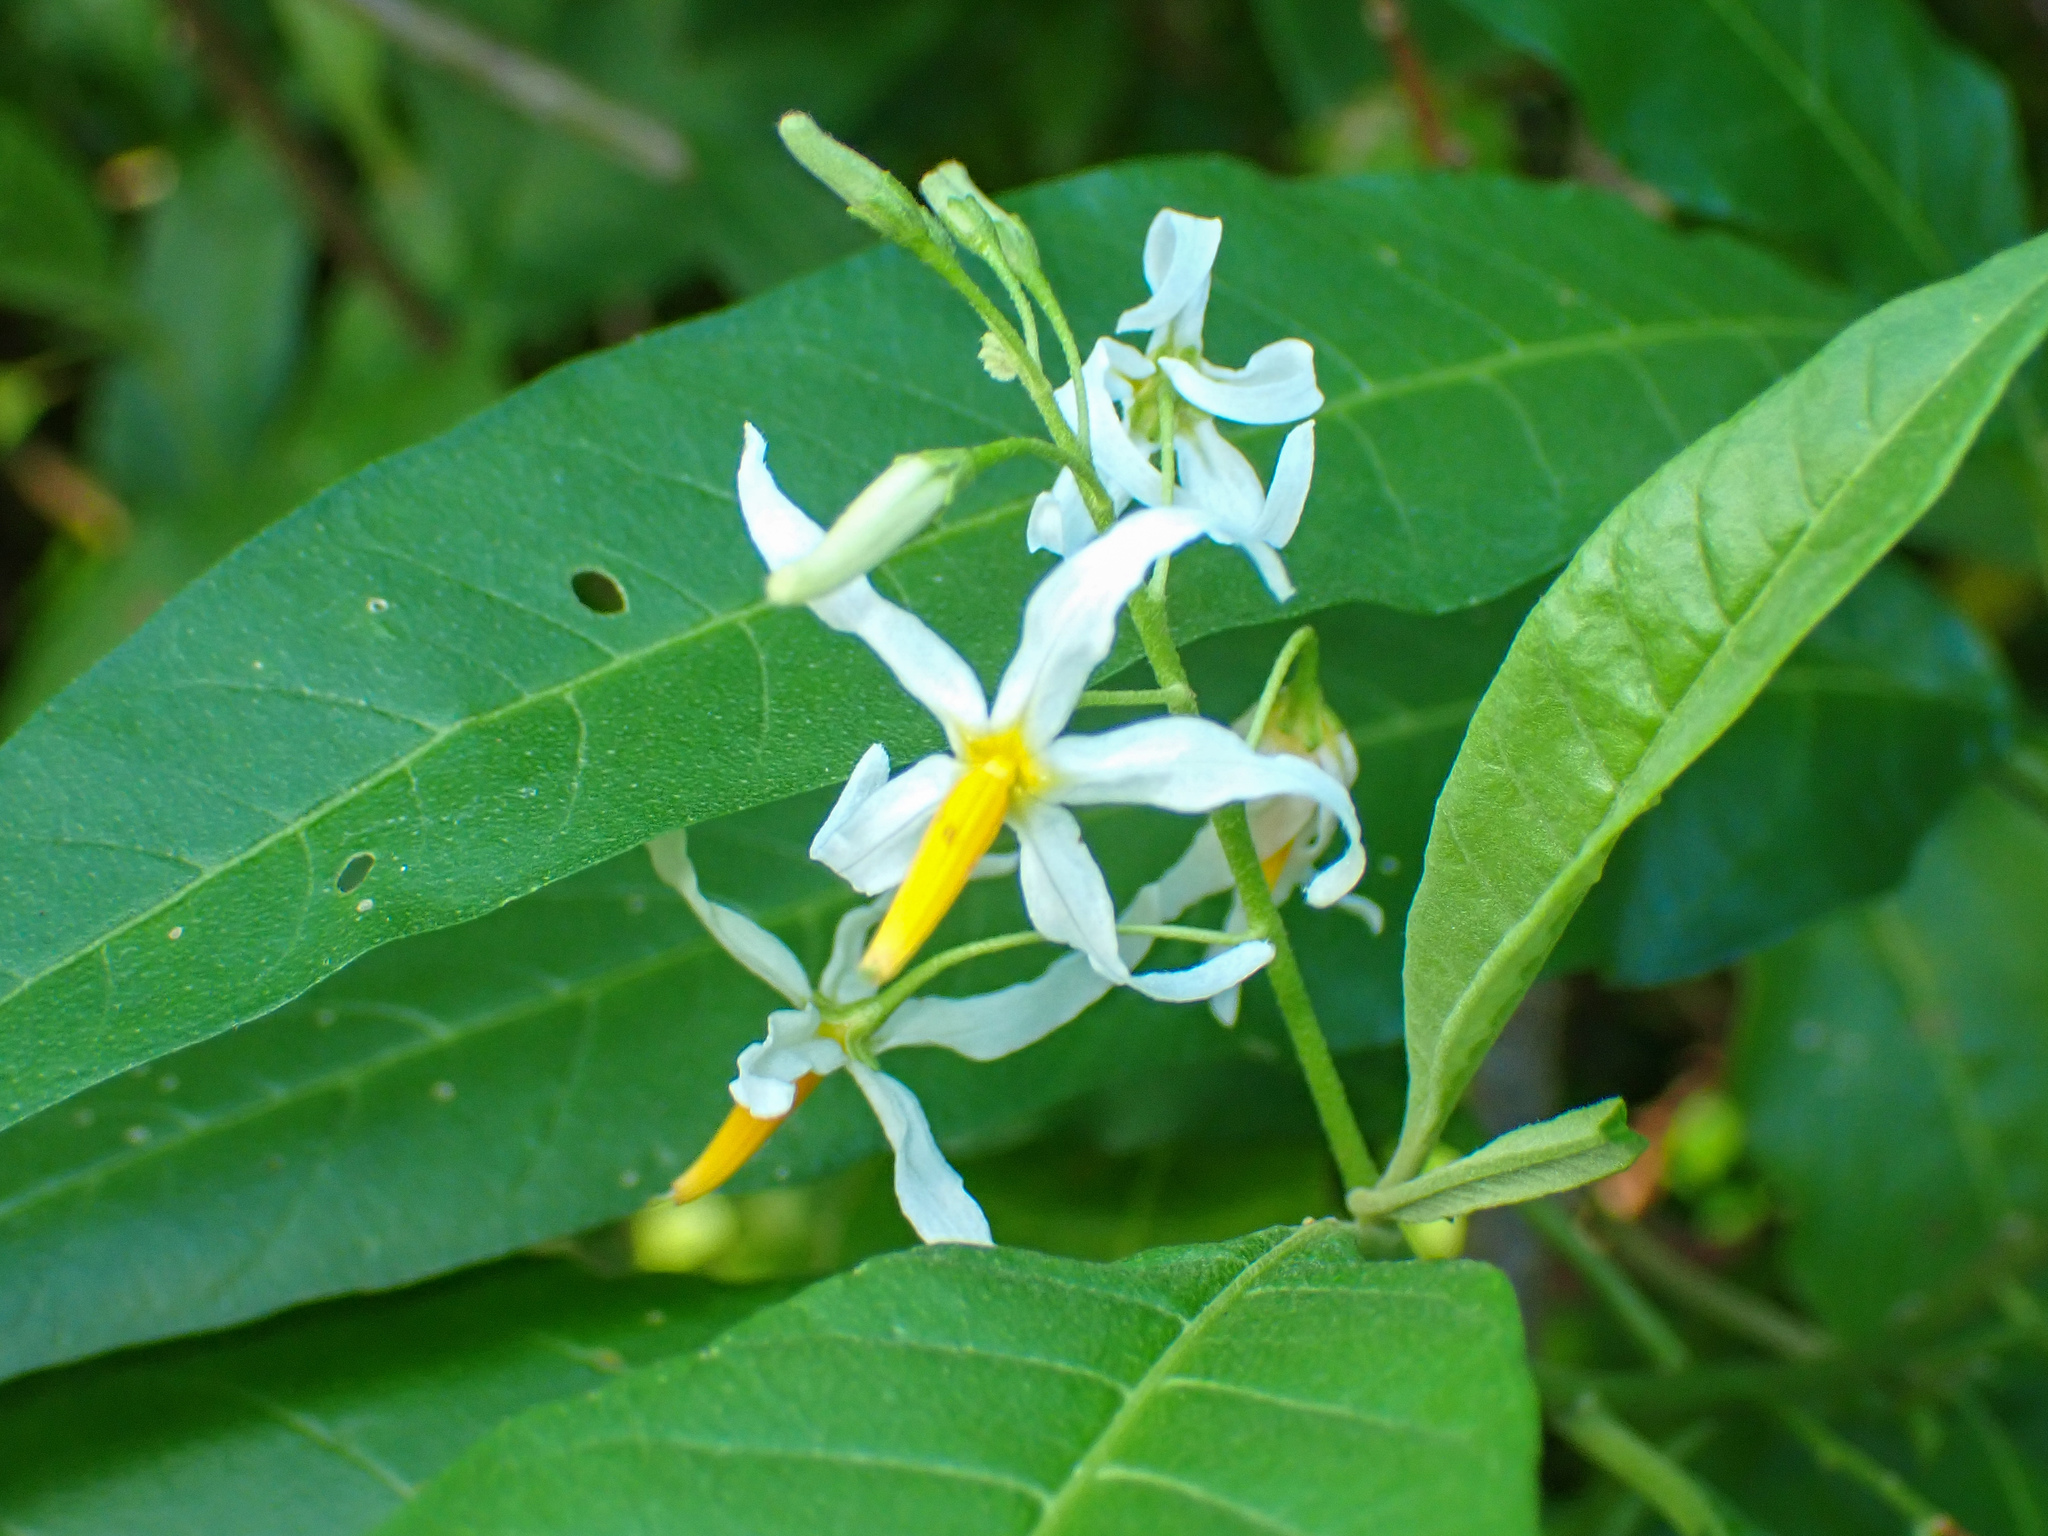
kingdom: Plantae
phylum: Tracheophyta
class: Magnoliopsida
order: Solanales
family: Solanaceae
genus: Solanum
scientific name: Solanum bahamense
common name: Canker-berry
